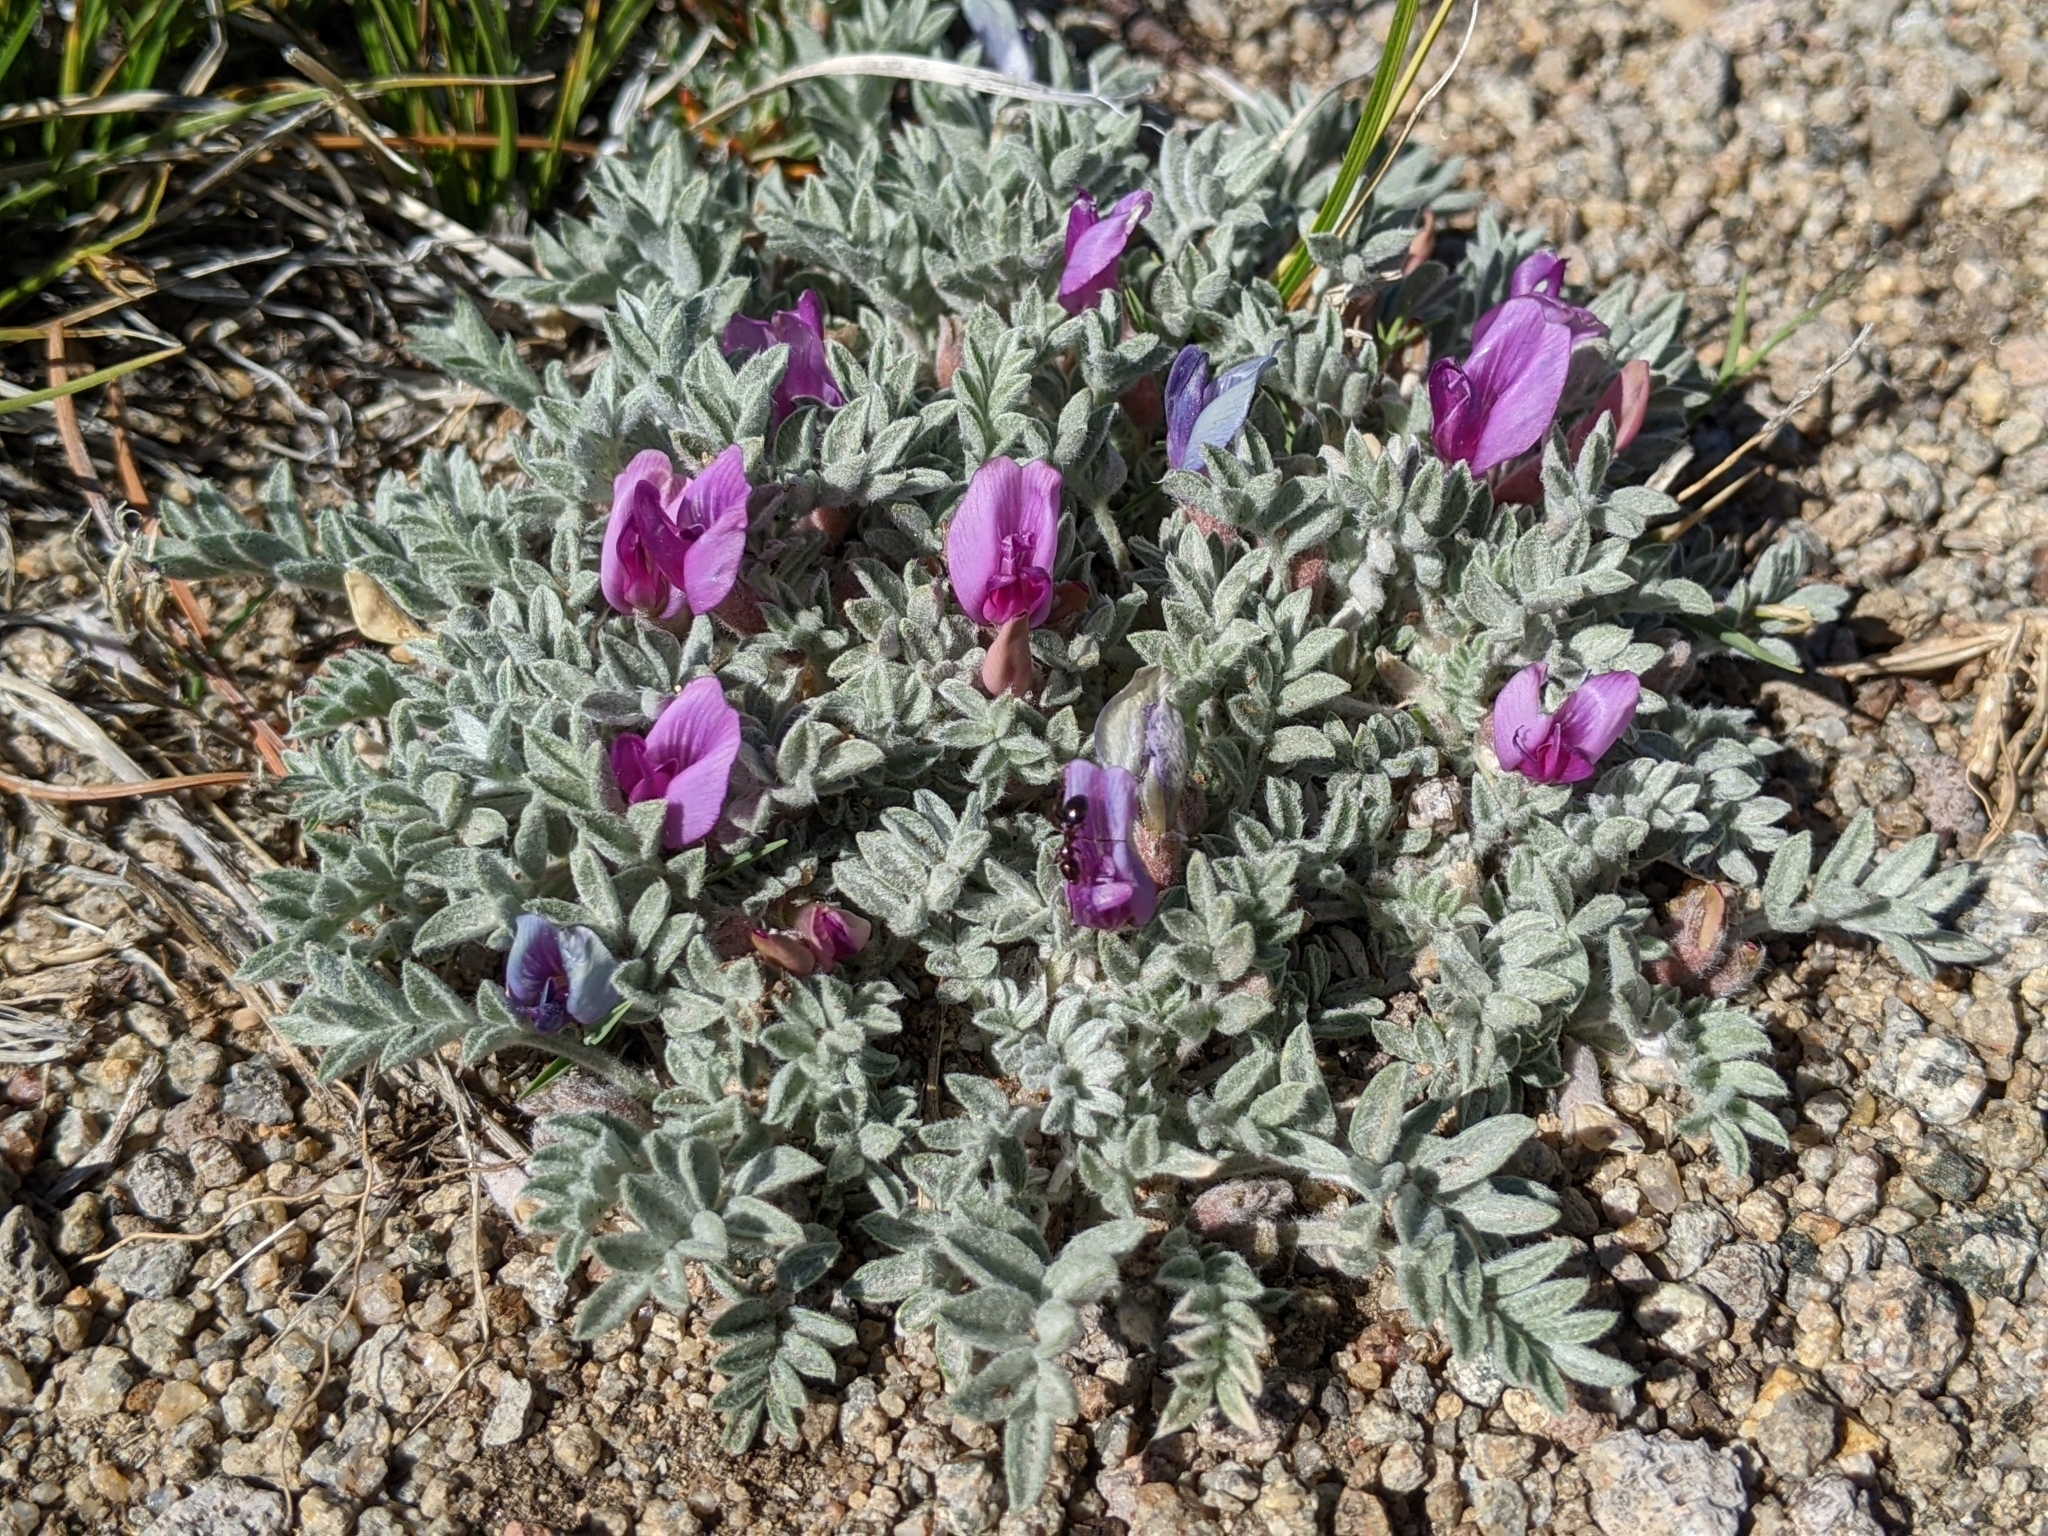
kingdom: Plantae
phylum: Tracheophyta
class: Magnoliopsida
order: Fabales
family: Fabaceae
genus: Astragalus
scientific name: Astragalus purshii
